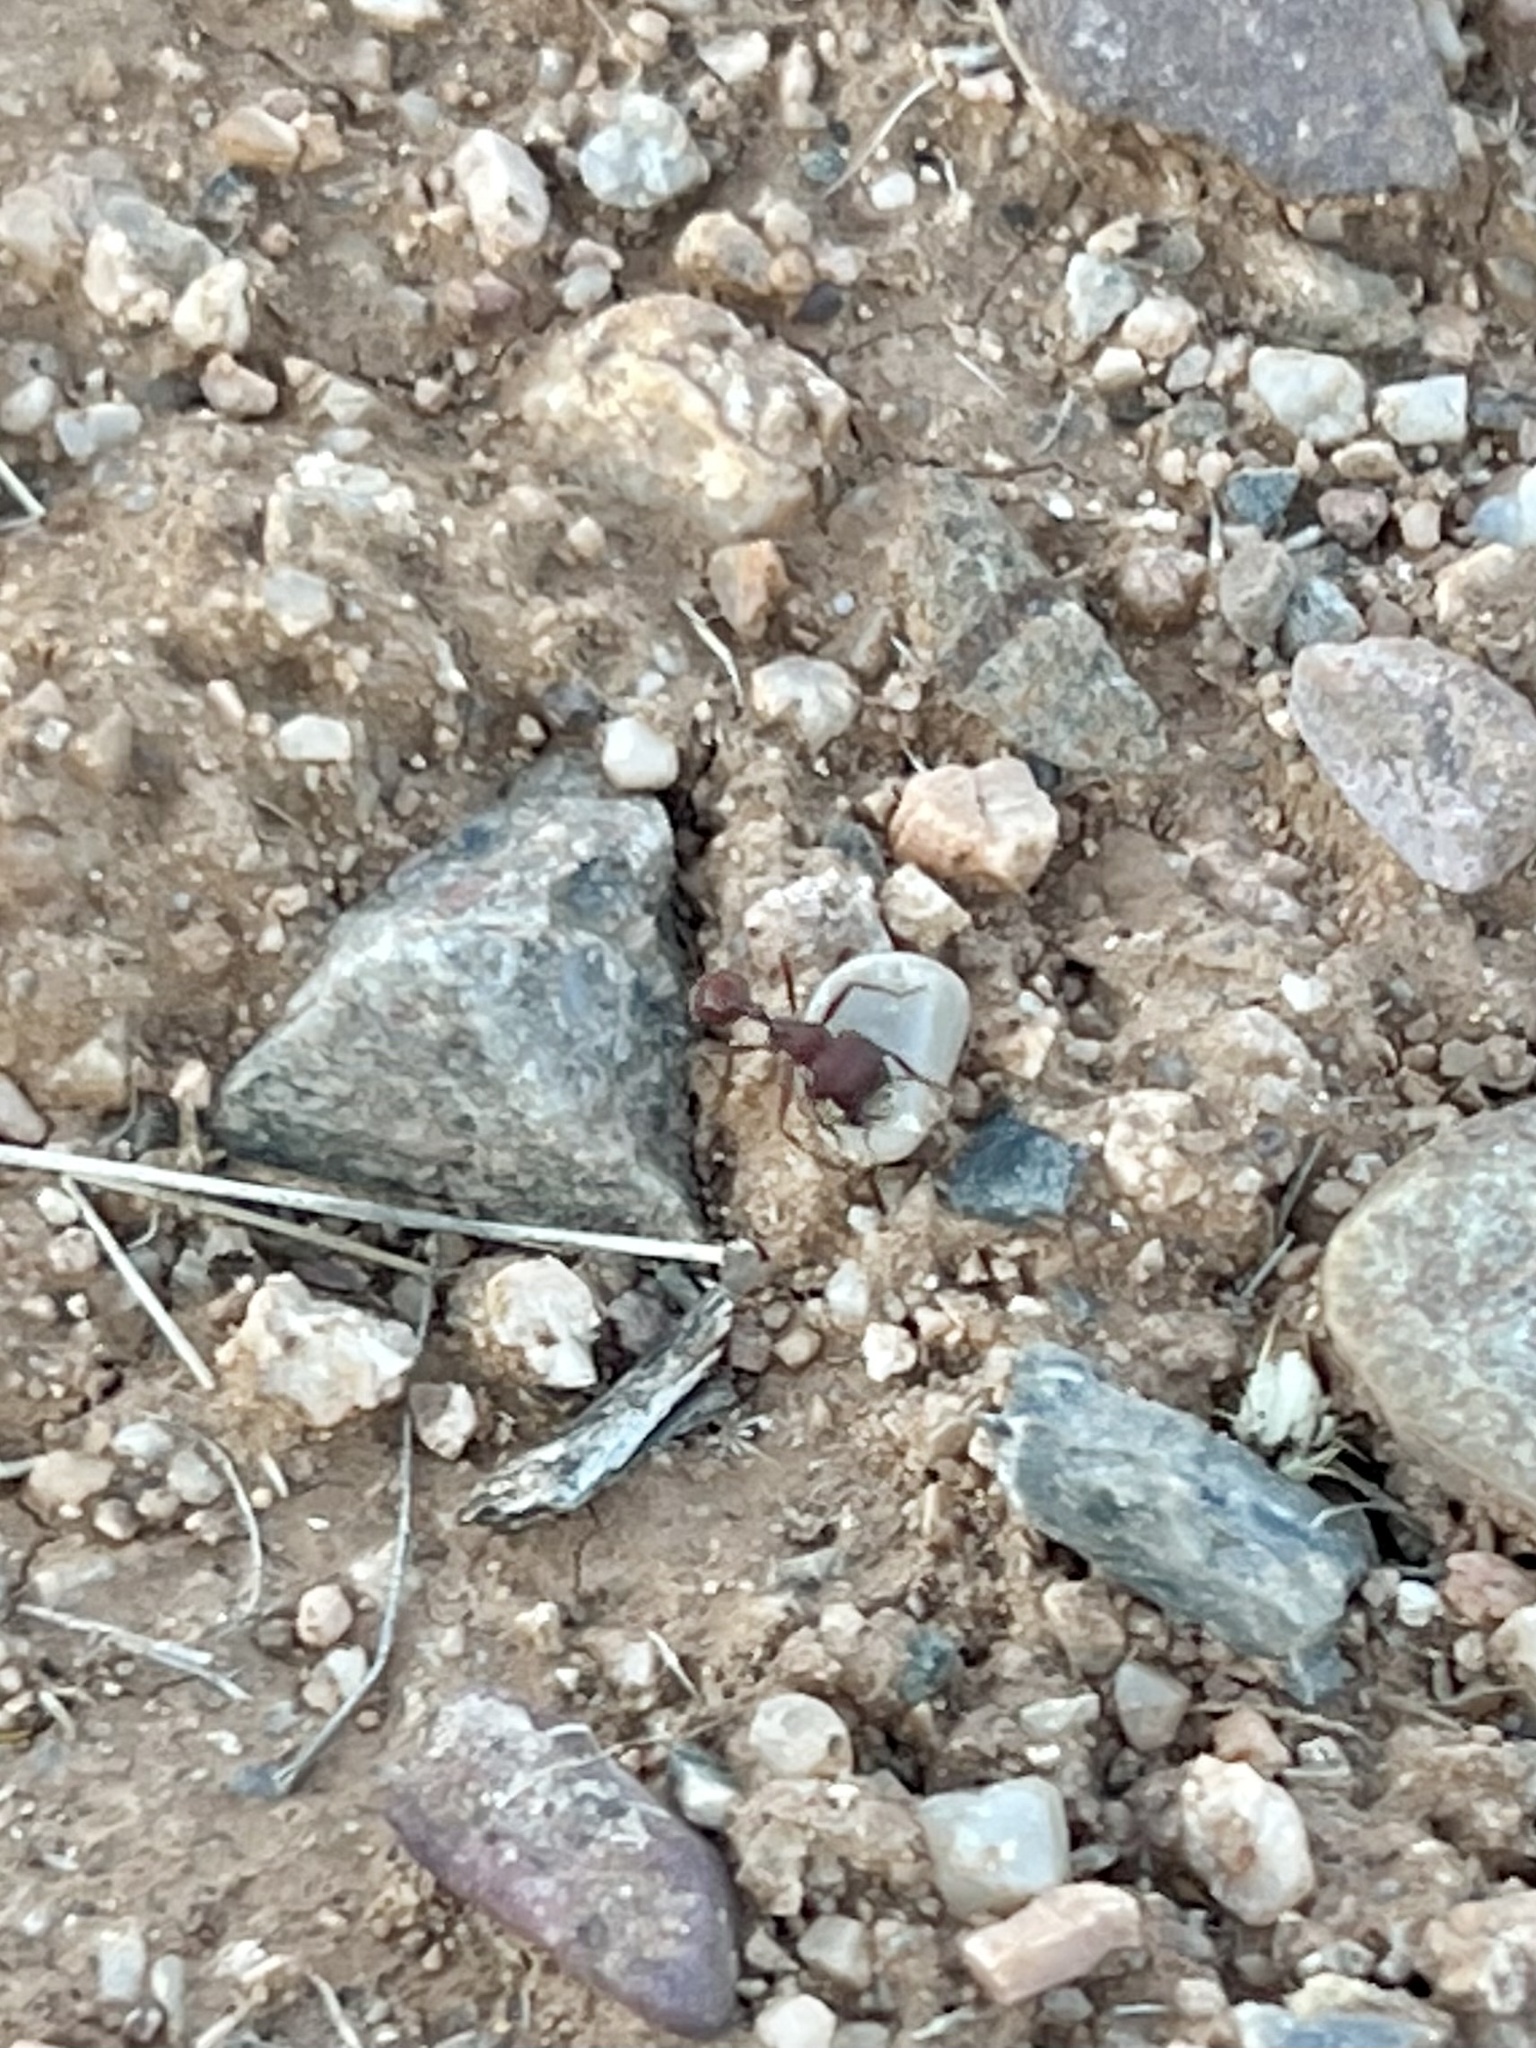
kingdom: Animalia
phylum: Arthropoda
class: Insecta
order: Hymenoptera
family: Formicidae
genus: Pogonomyrmex
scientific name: Pogonomyrmex barbatus
